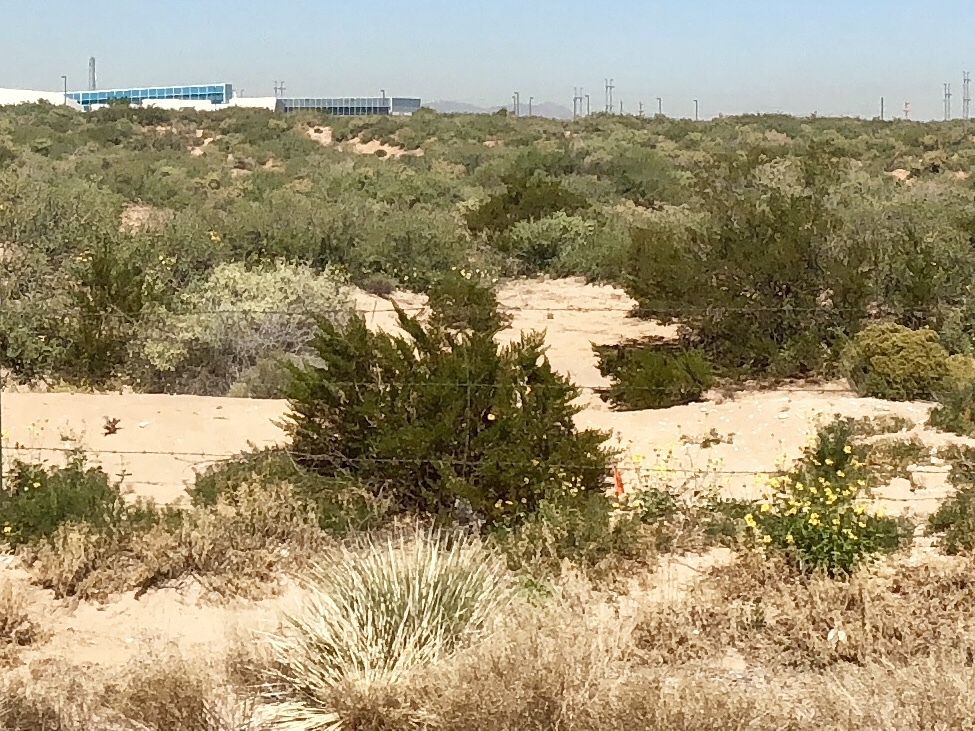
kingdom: Plantae
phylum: Tracheophyta
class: Magnoliopsida
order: Zygophyllales
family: Zygophyllaceae
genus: Larrea
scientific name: Larrea tridentata
